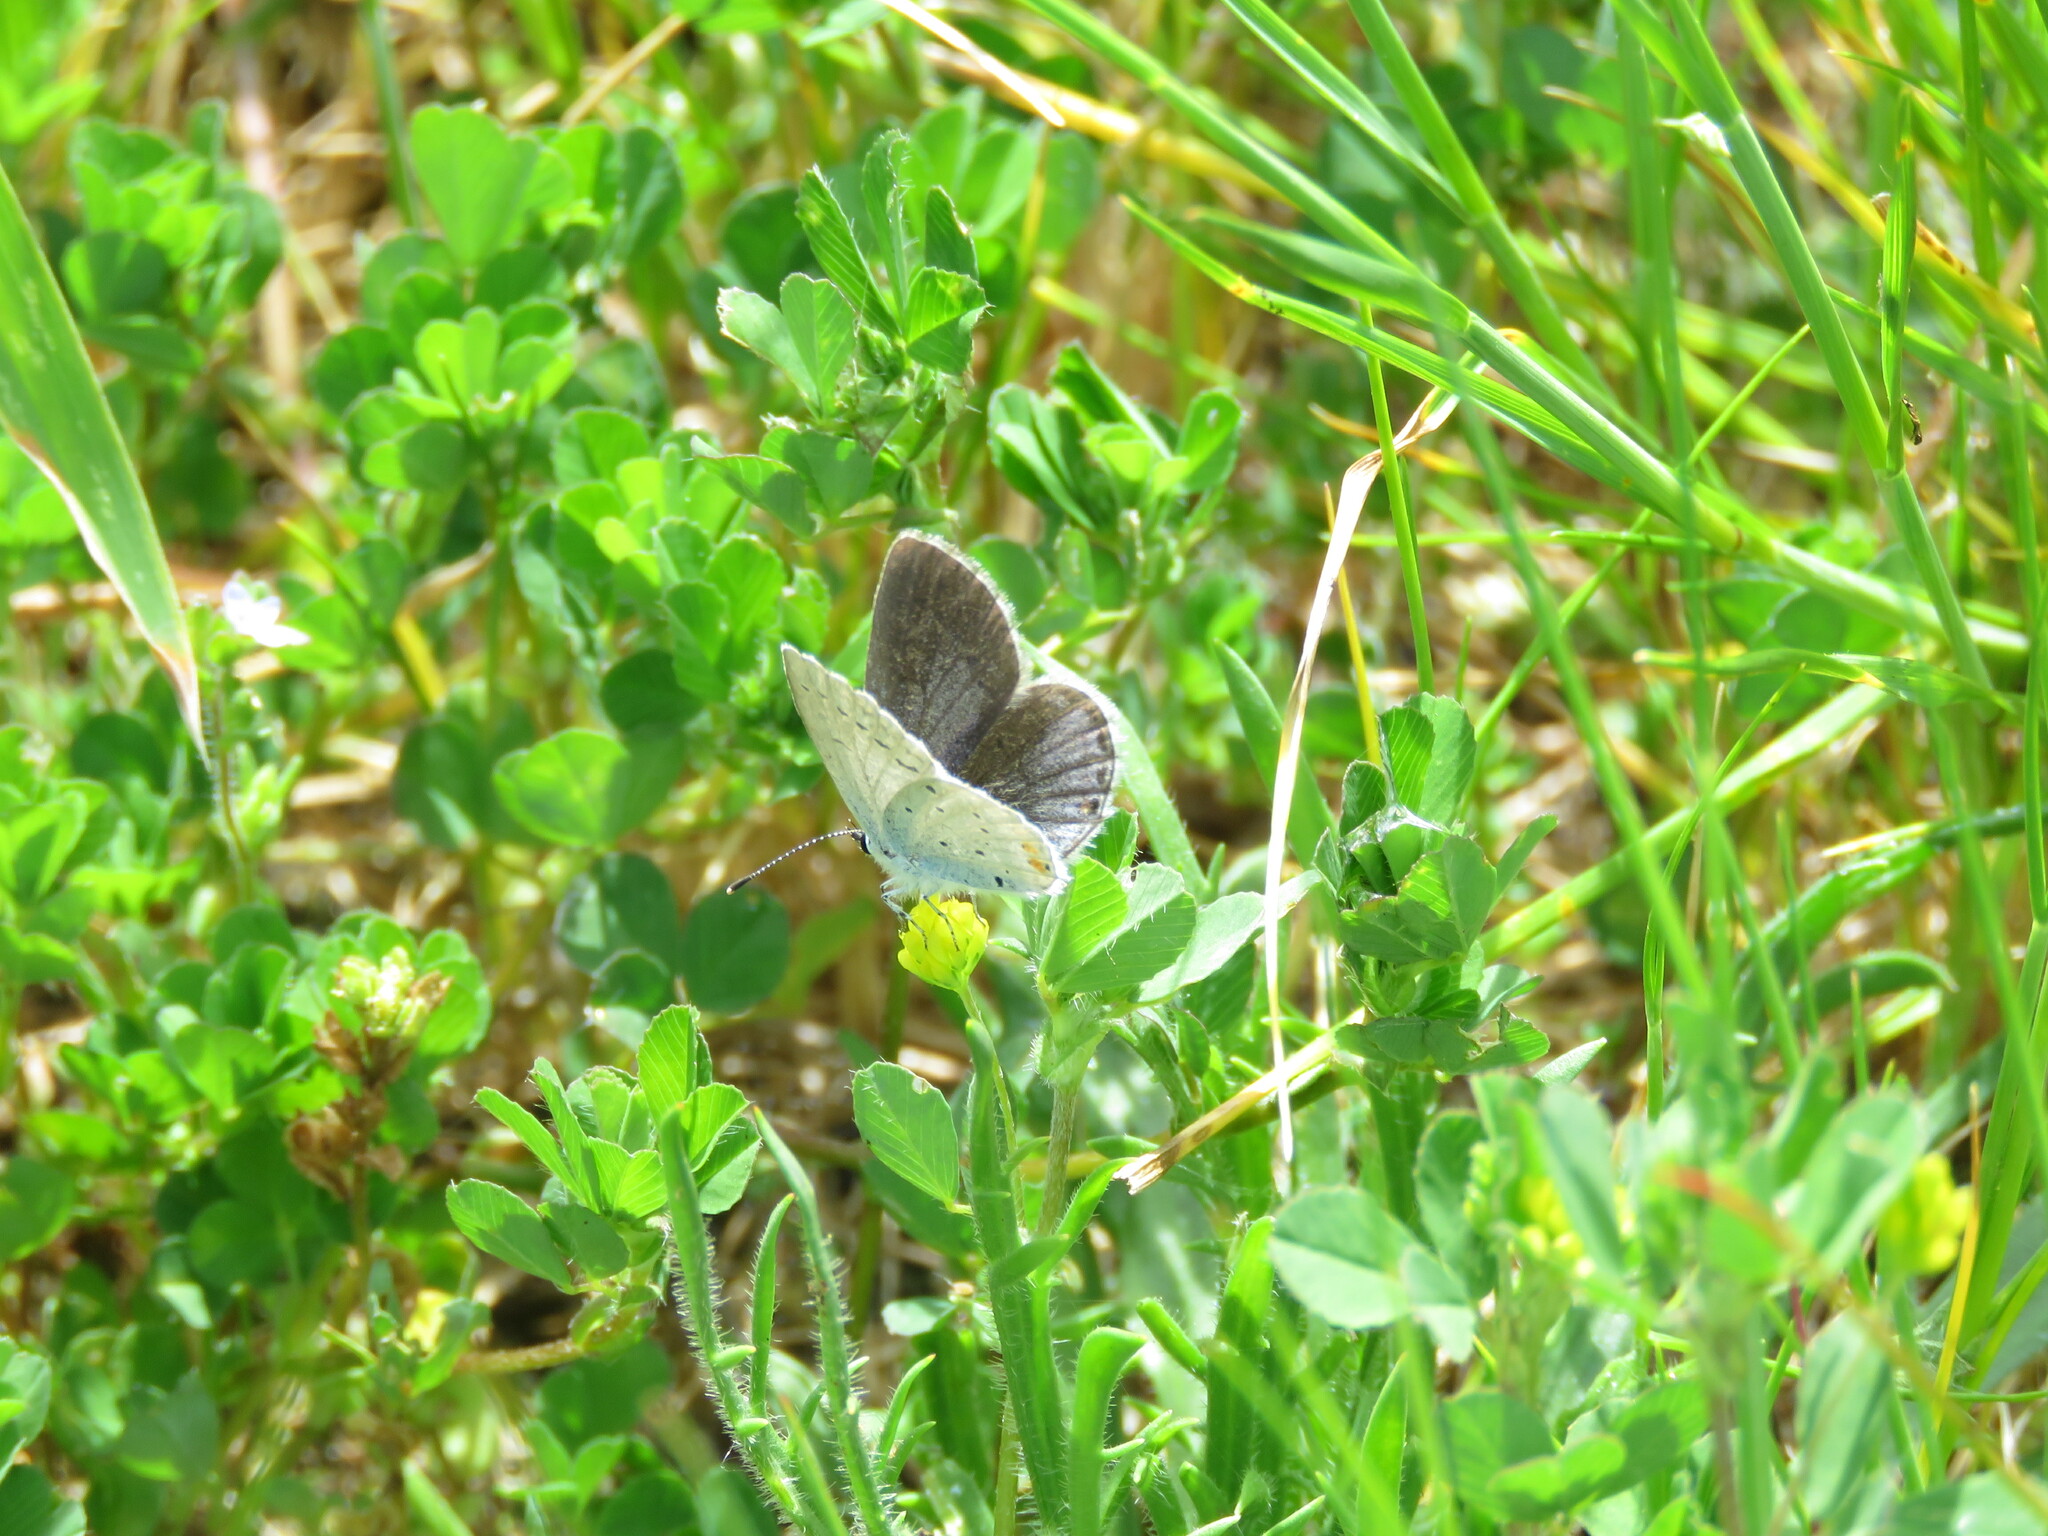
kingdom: Animalia
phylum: Arthropoda
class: Insecta
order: Lepidoptera
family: Lycaenidae
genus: Elkalyce
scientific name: Elkalyce argiades
